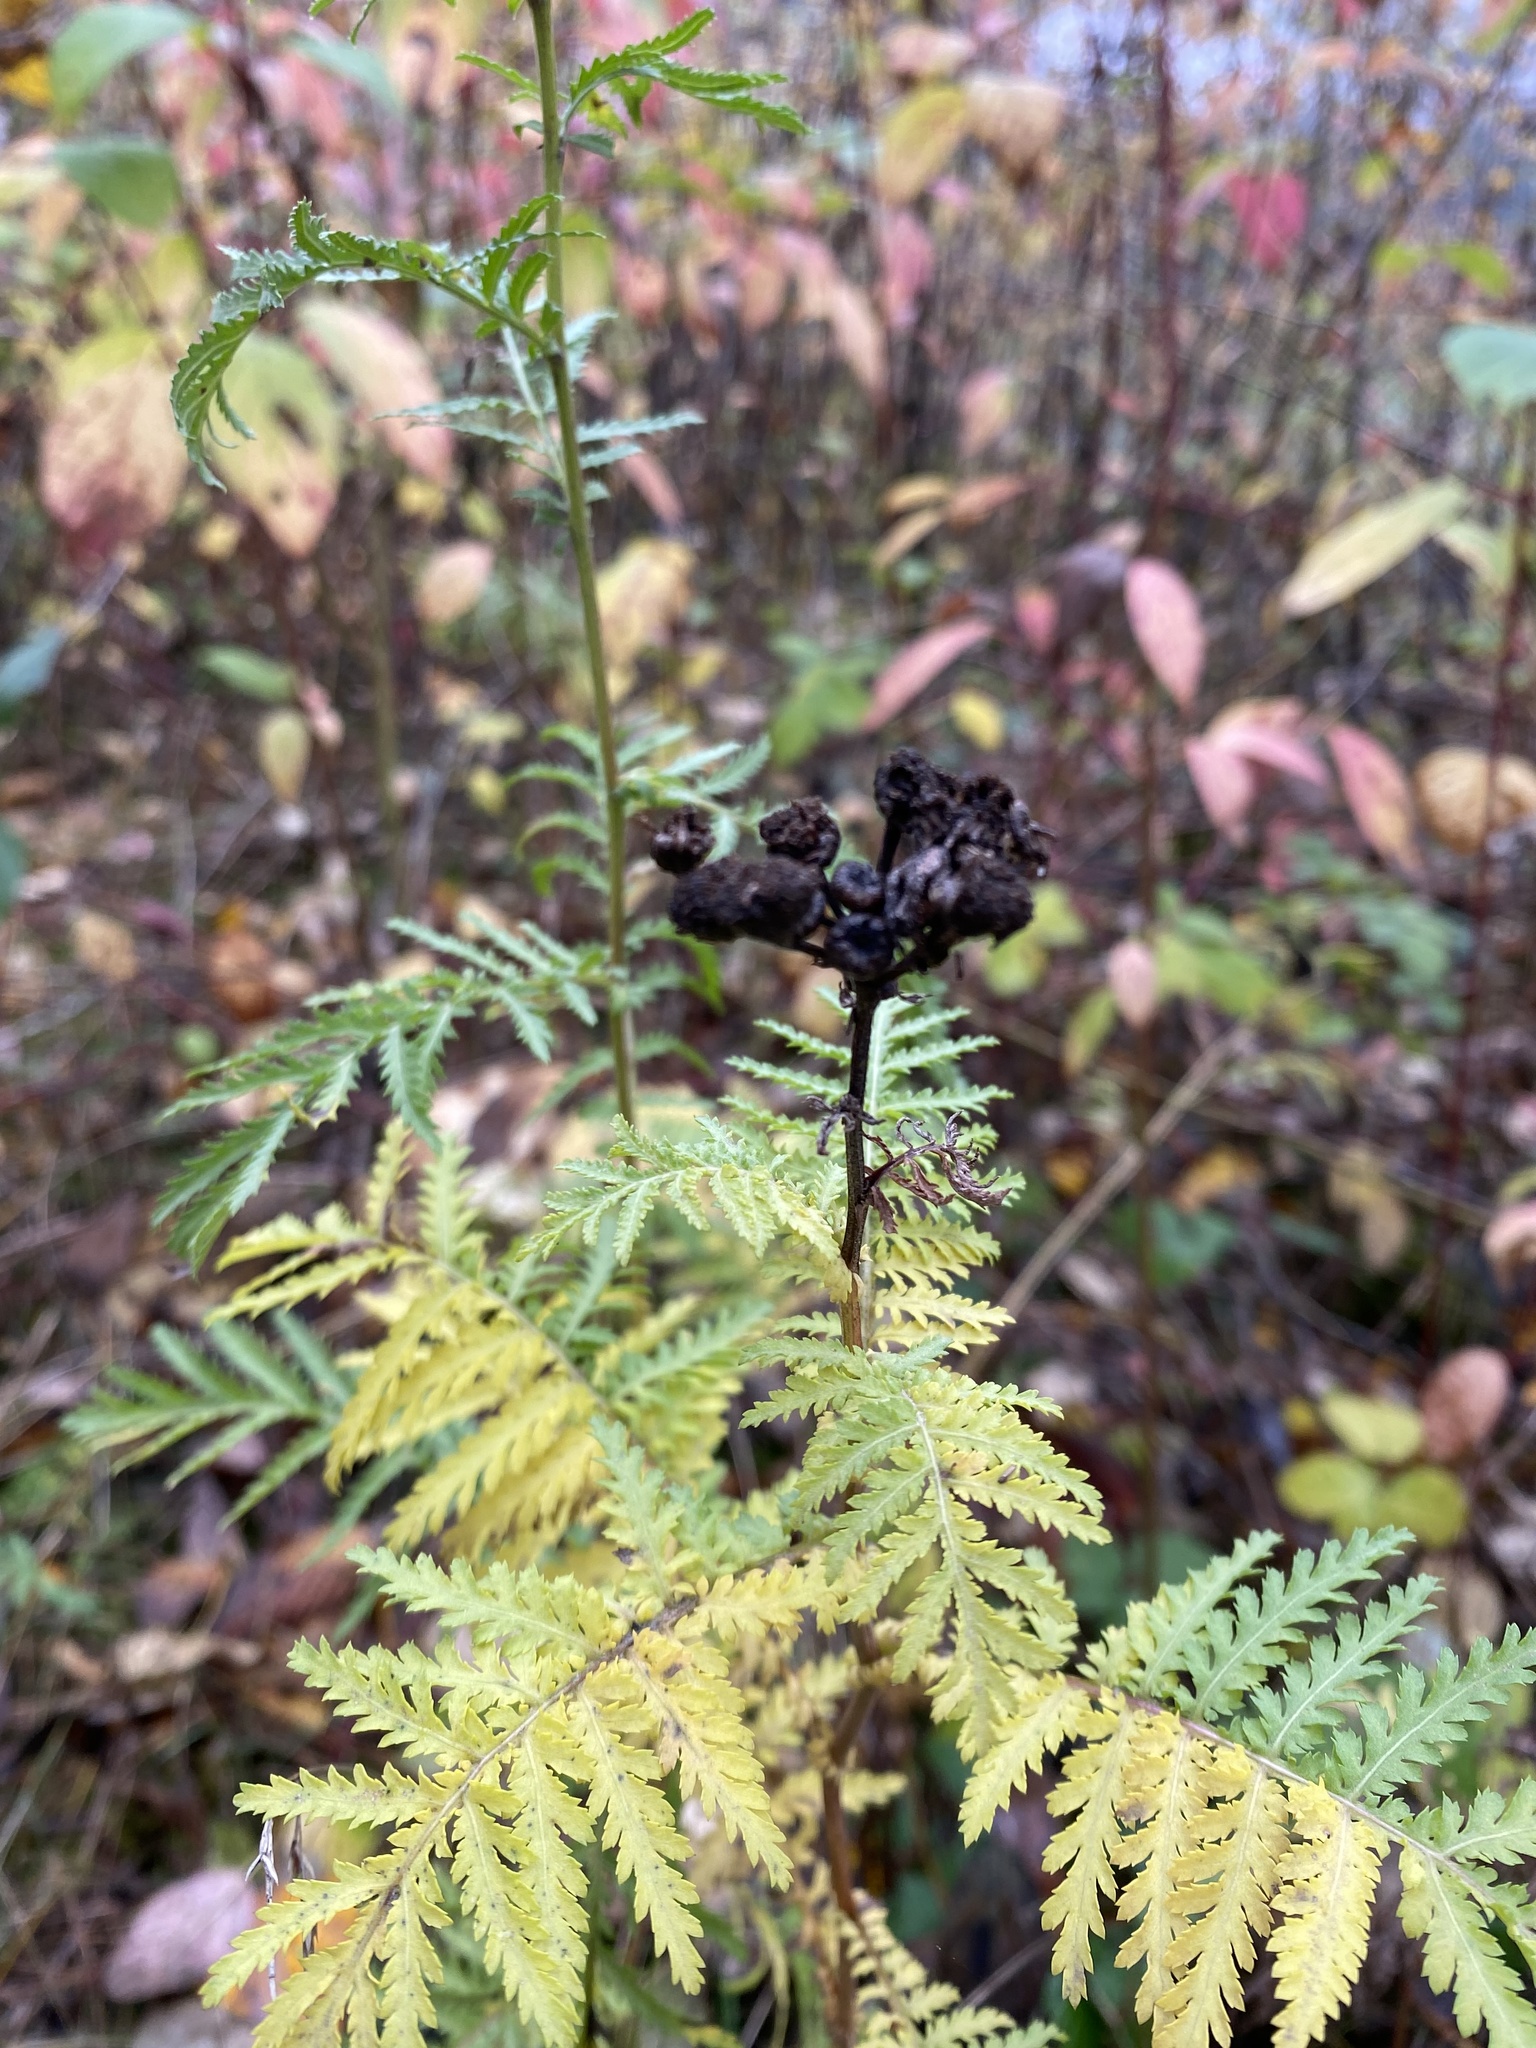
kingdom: Plantae
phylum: Tracheophyta
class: Magnoliopsida
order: Asterales
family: Asteraceae
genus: Tanacetum
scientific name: Tanacetum vulgare
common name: Common tansy
